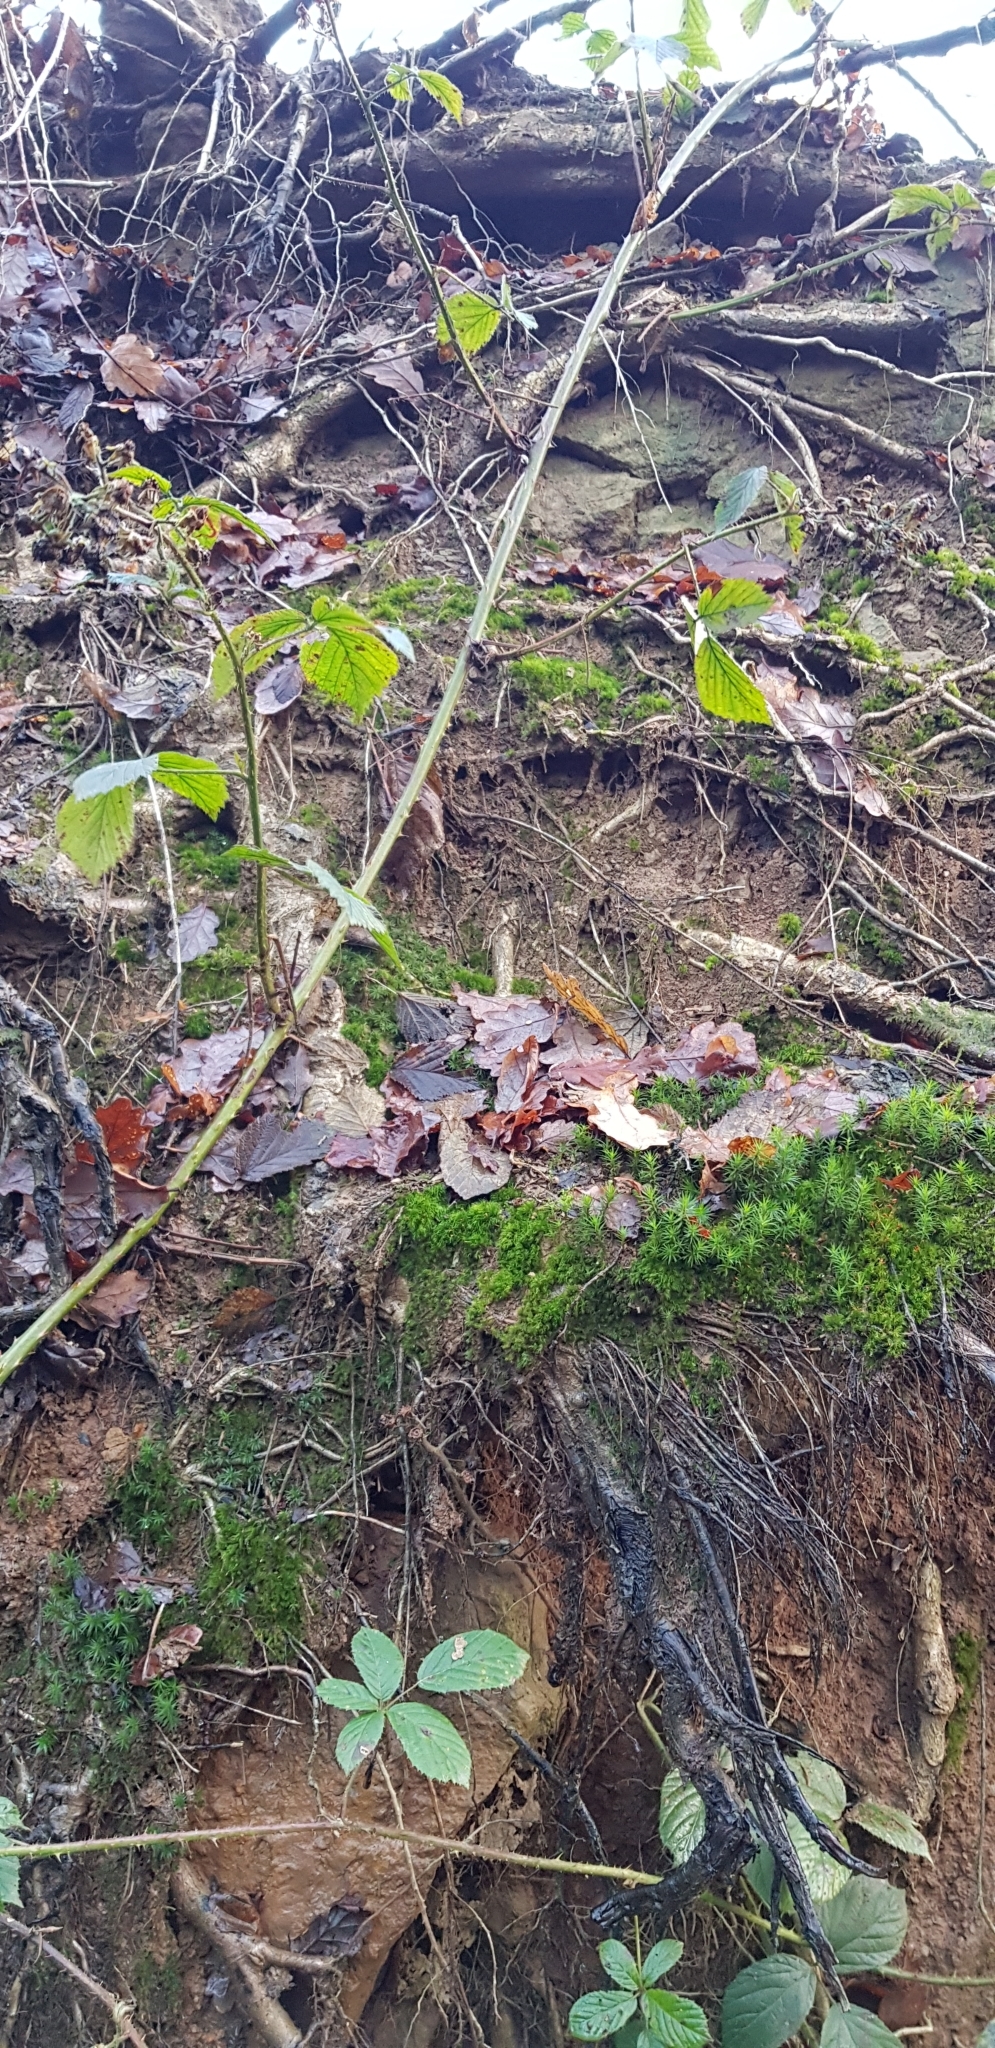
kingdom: Plantae
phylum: Bryophyta
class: Bryopsida
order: Dicranales
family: Dicranellaceae
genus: Dicranella
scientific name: Dicranella heteromalla
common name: Silky forklet moss
